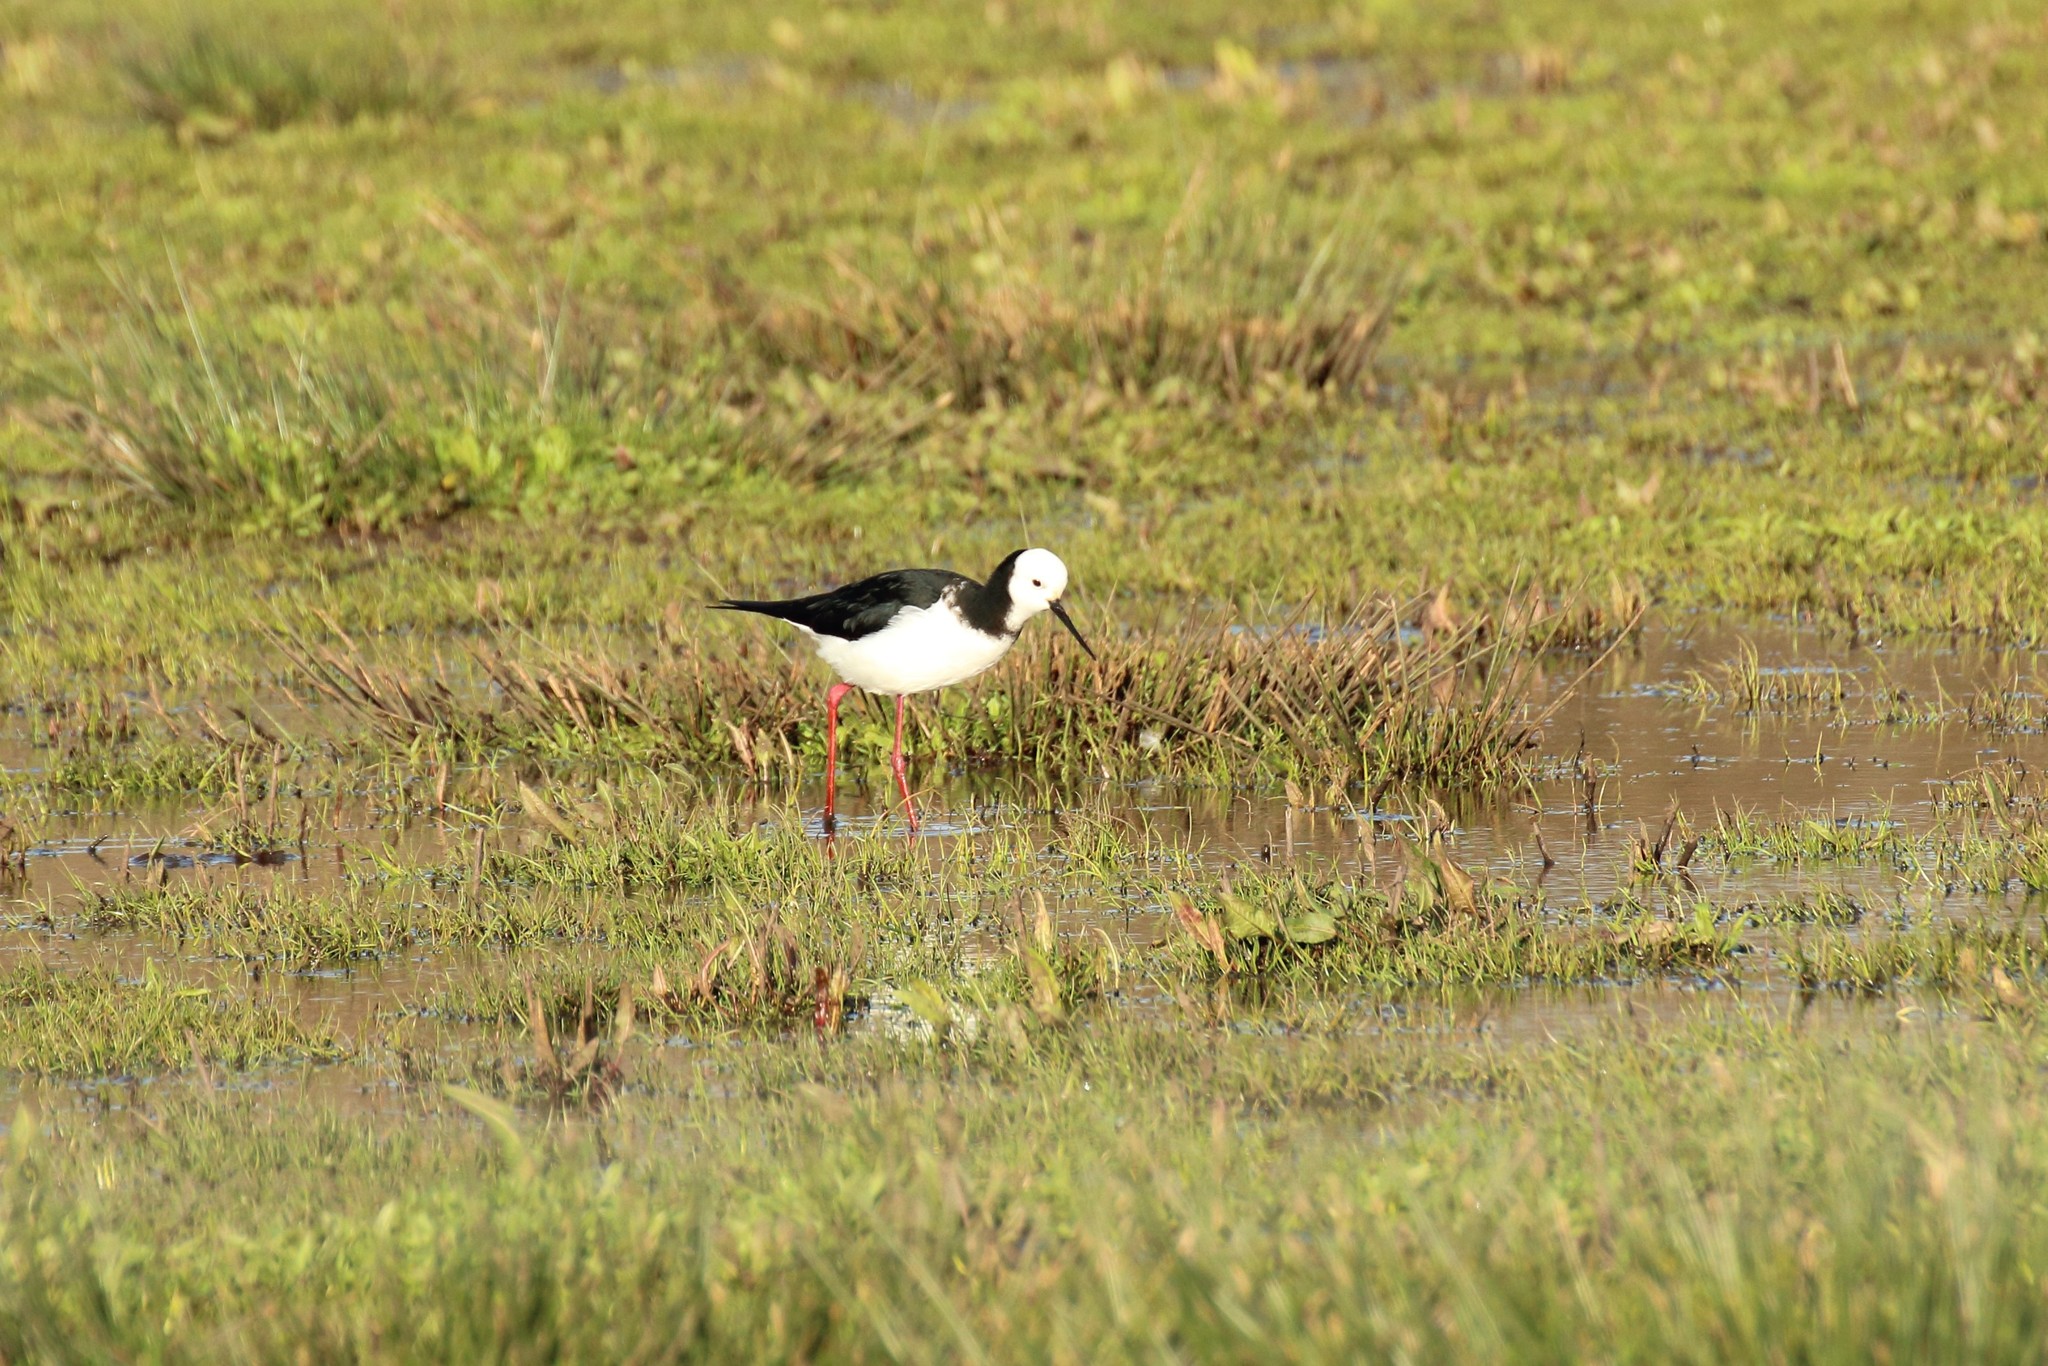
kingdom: Animalia
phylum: Chordata
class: Aves
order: Charadriiformes
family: Recurvirostridae
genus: Himantopus
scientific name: Himantopus leucocephalus
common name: White-headed stilt
